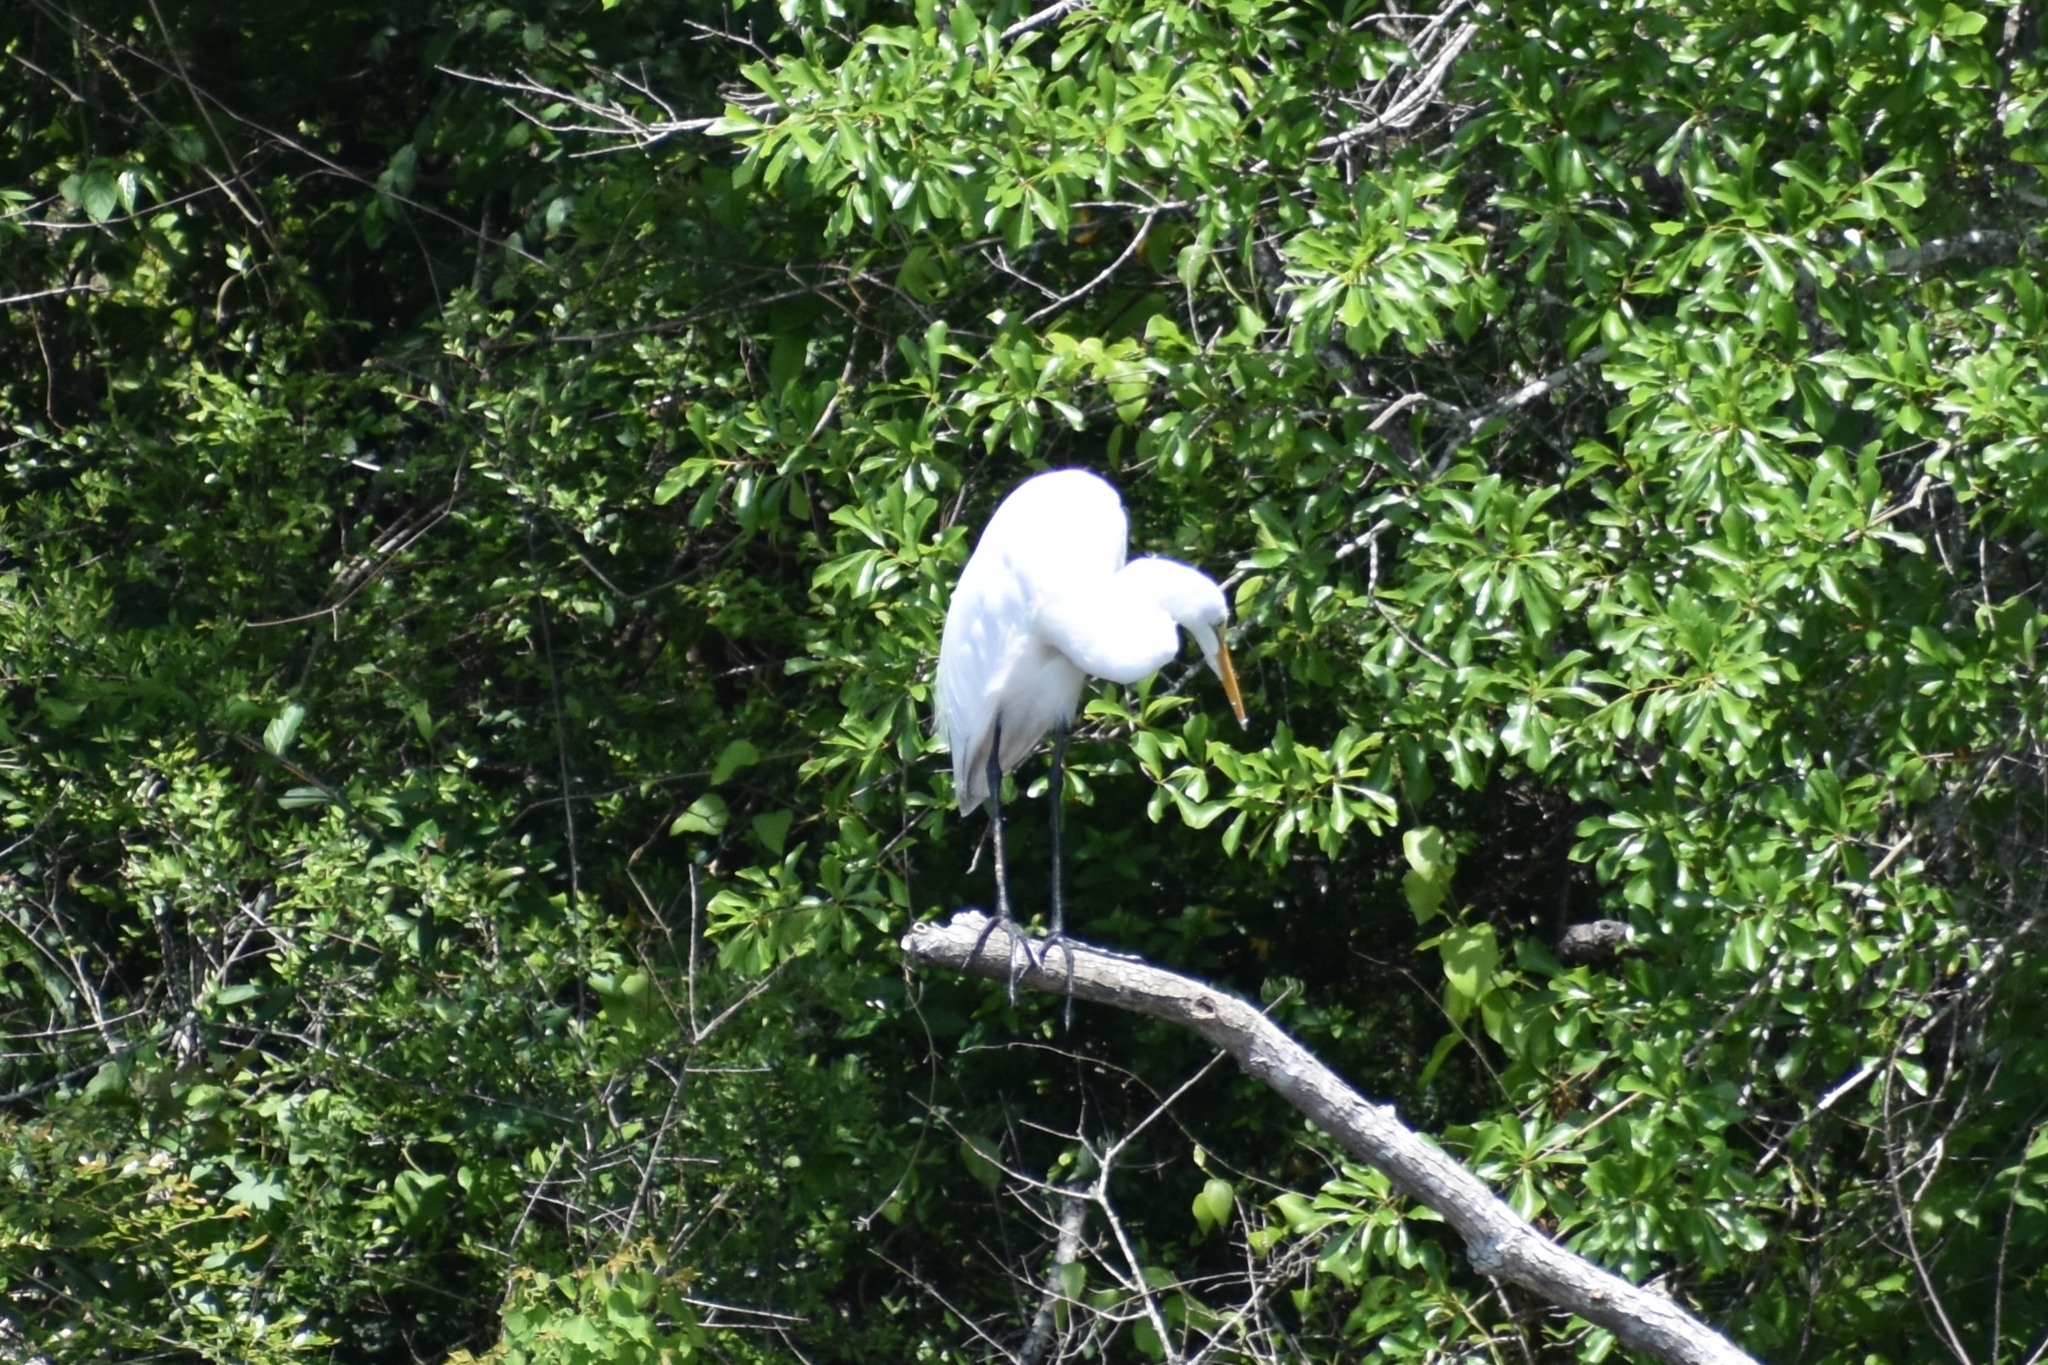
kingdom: Animalia
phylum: Chordata
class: Aves
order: Pelecaniformes
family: Ardeidae
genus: Ardea
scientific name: Ardea alba
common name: Great egret
